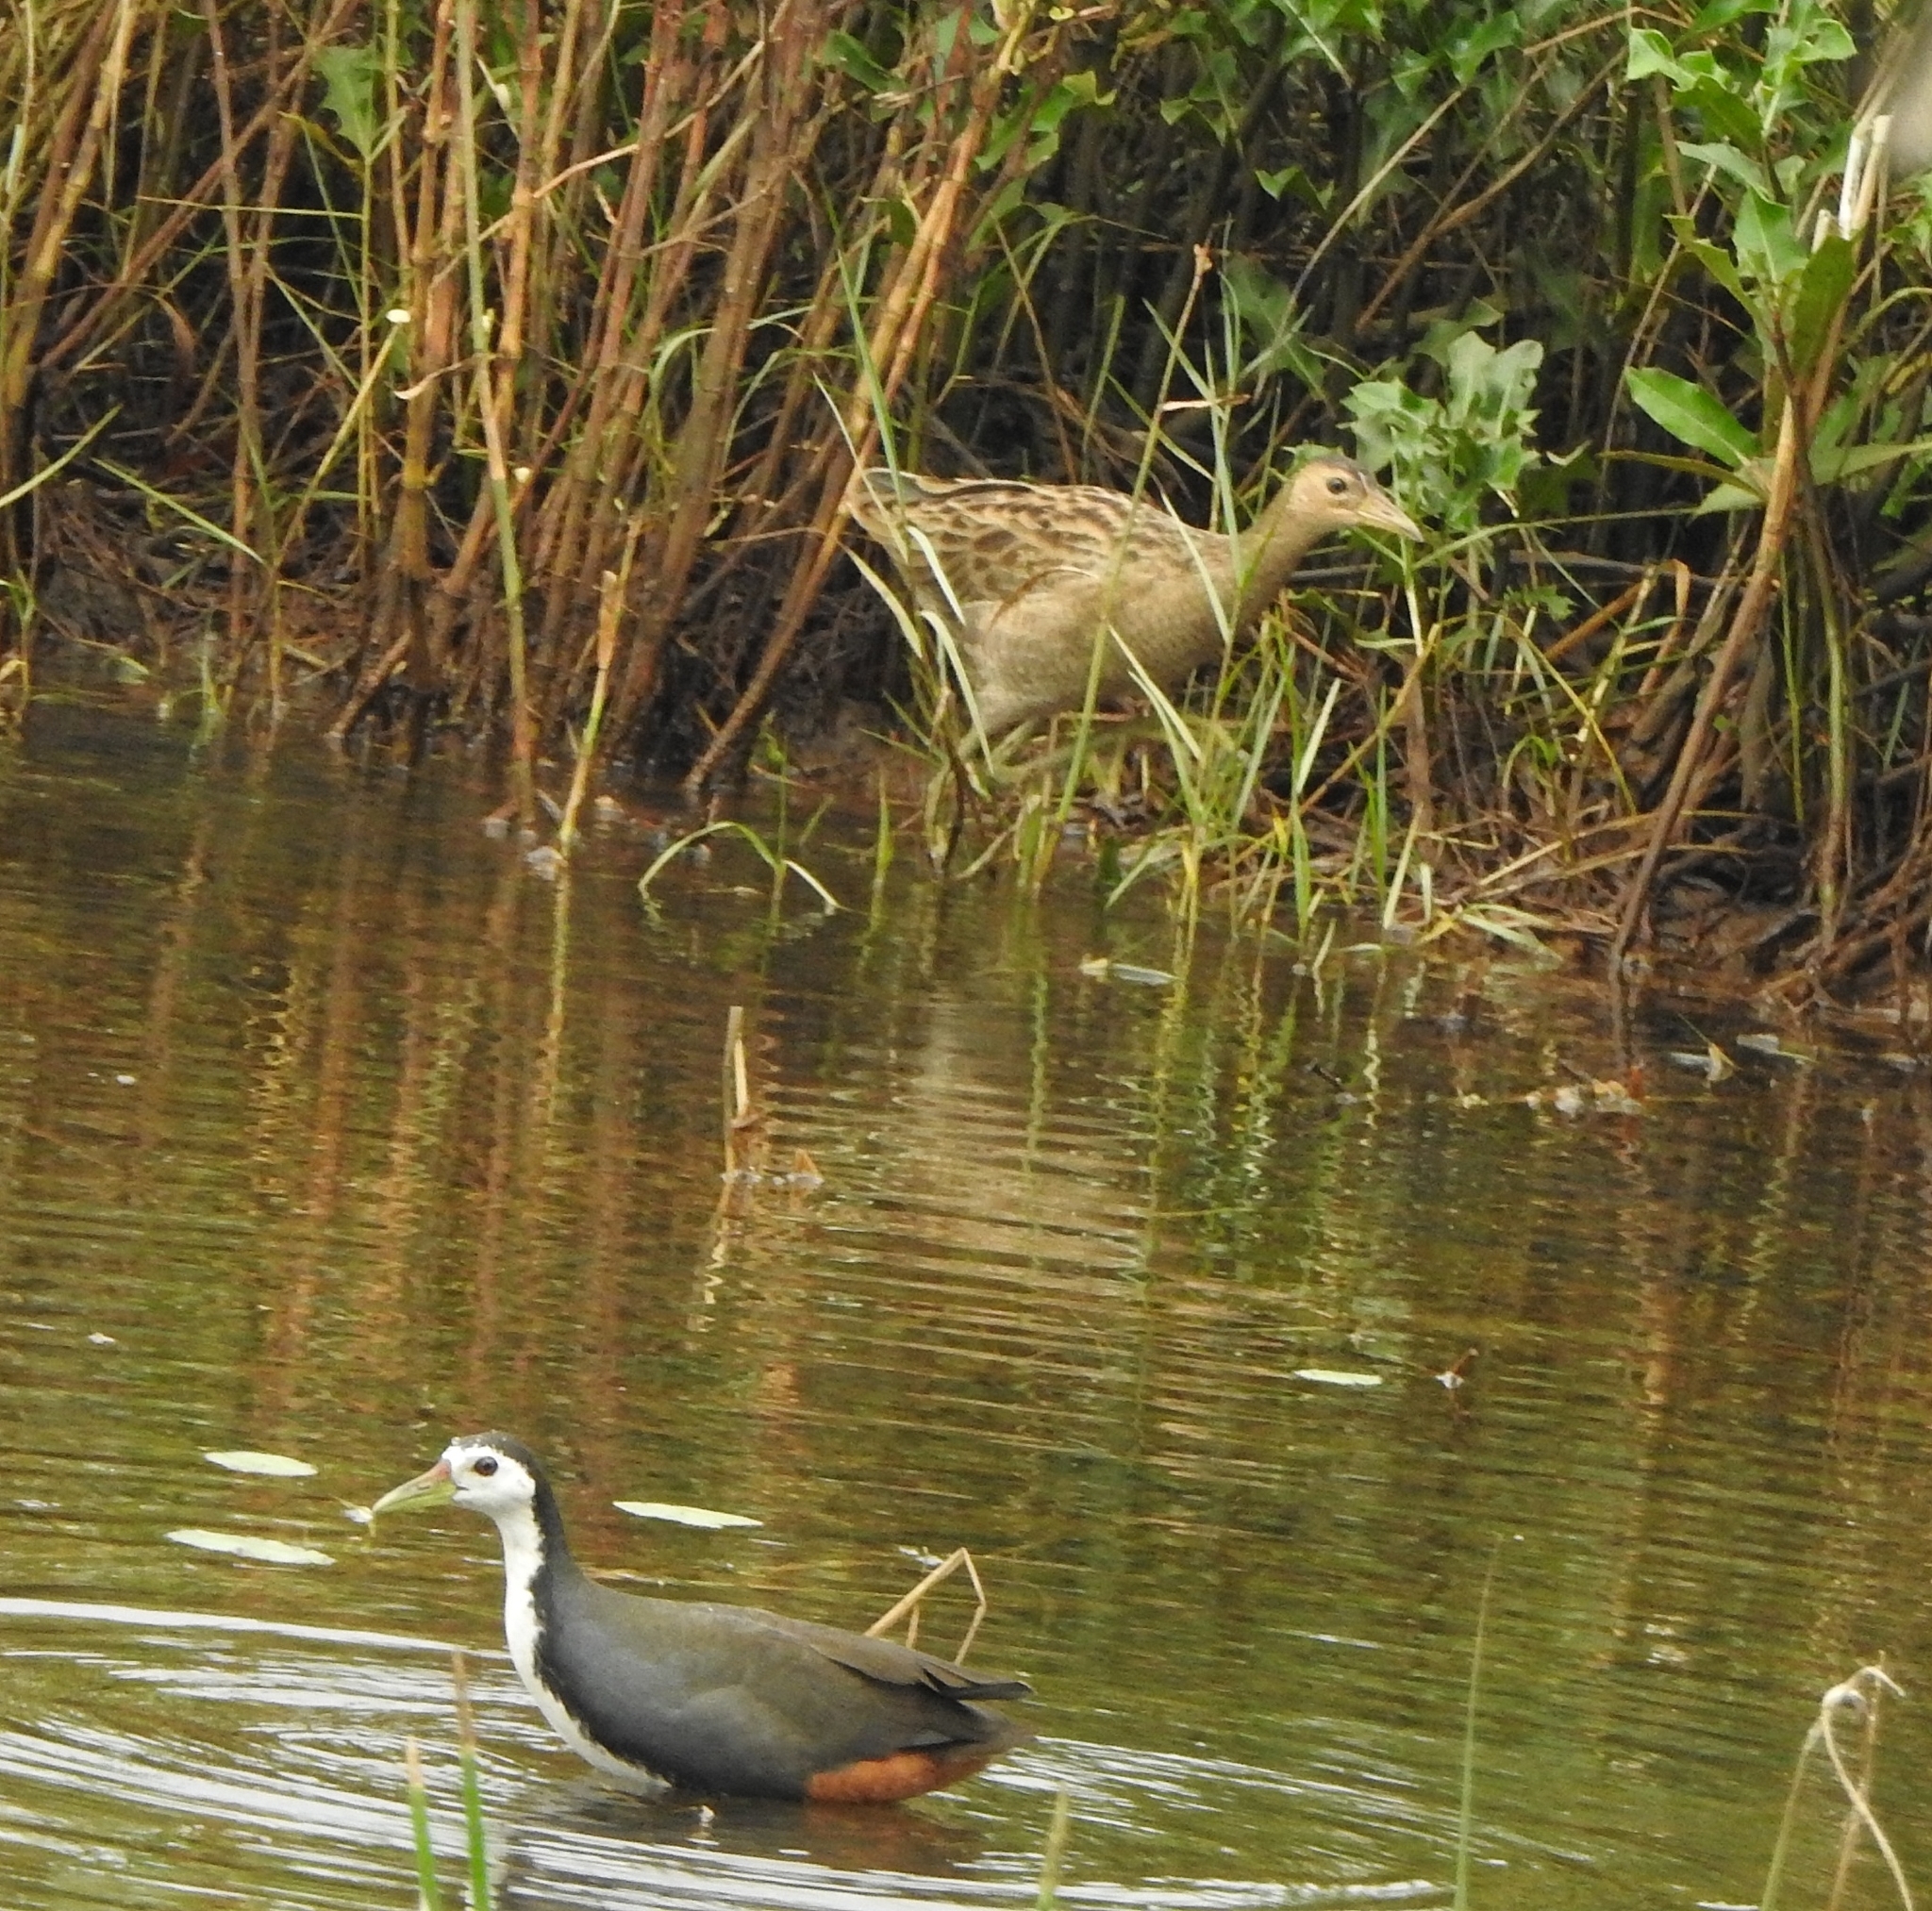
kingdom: Animalia
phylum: Chordata
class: Aves
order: Gruiformes
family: Rallidae
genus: Gallicrex
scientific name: Gallicrex cinerea
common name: Watercock
